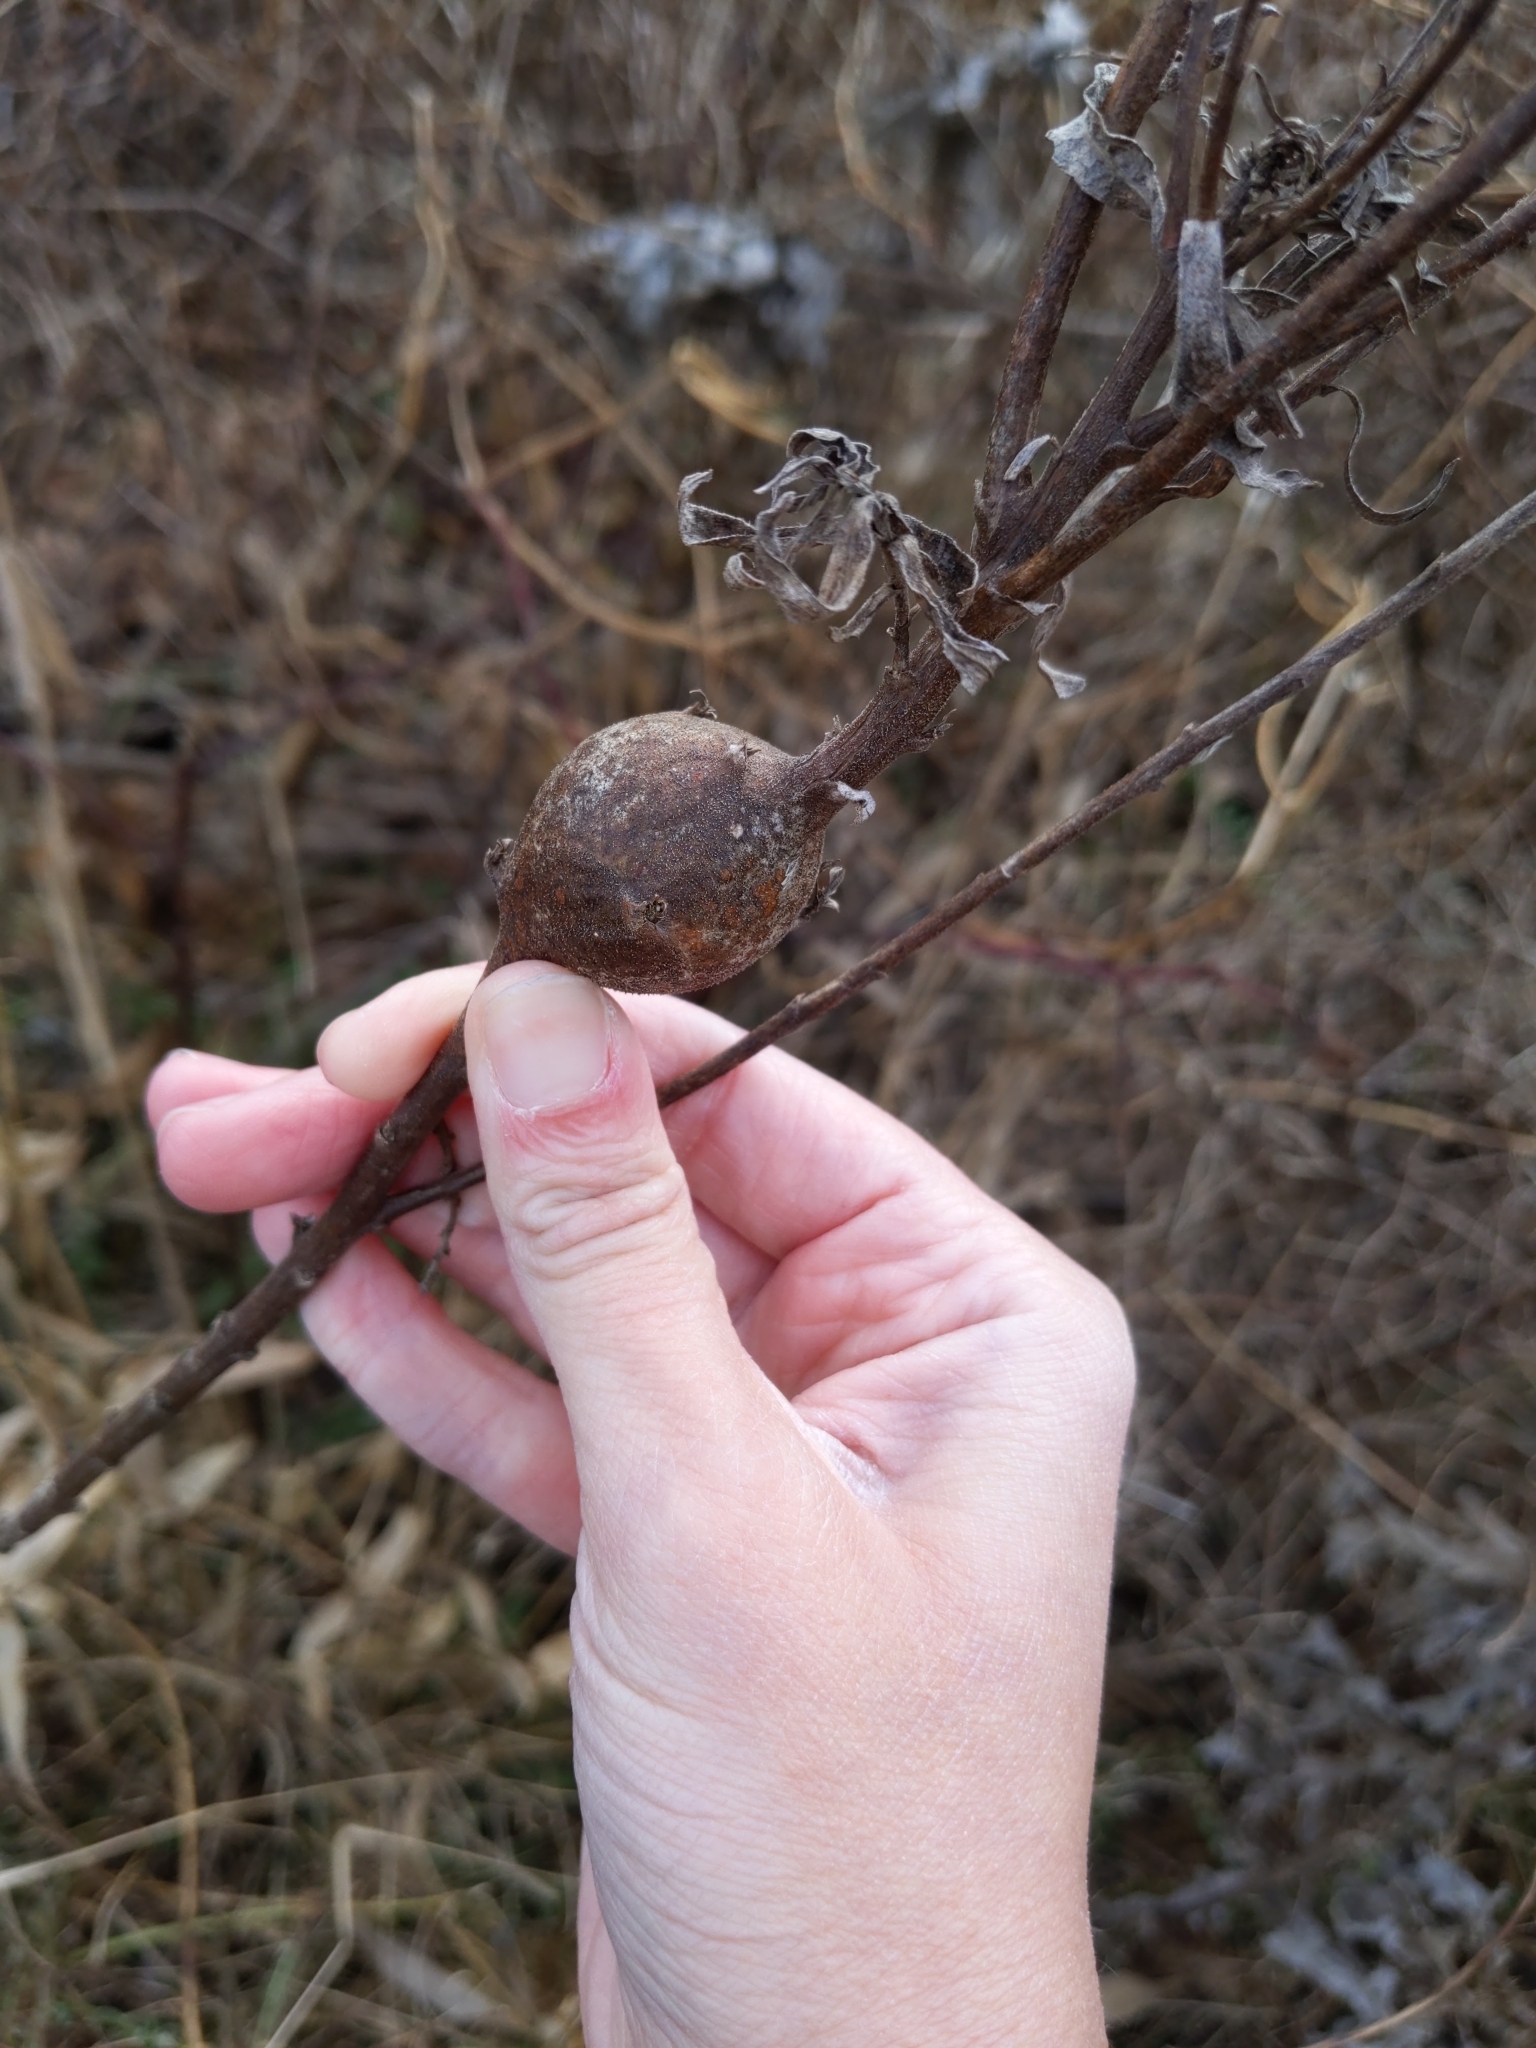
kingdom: Animalia
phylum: Arthropoda
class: Insecta
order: Diptera
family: Tephritidae
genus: Eurosta
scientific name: Eurosta solidaginis
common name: Goldenrod gall fly
